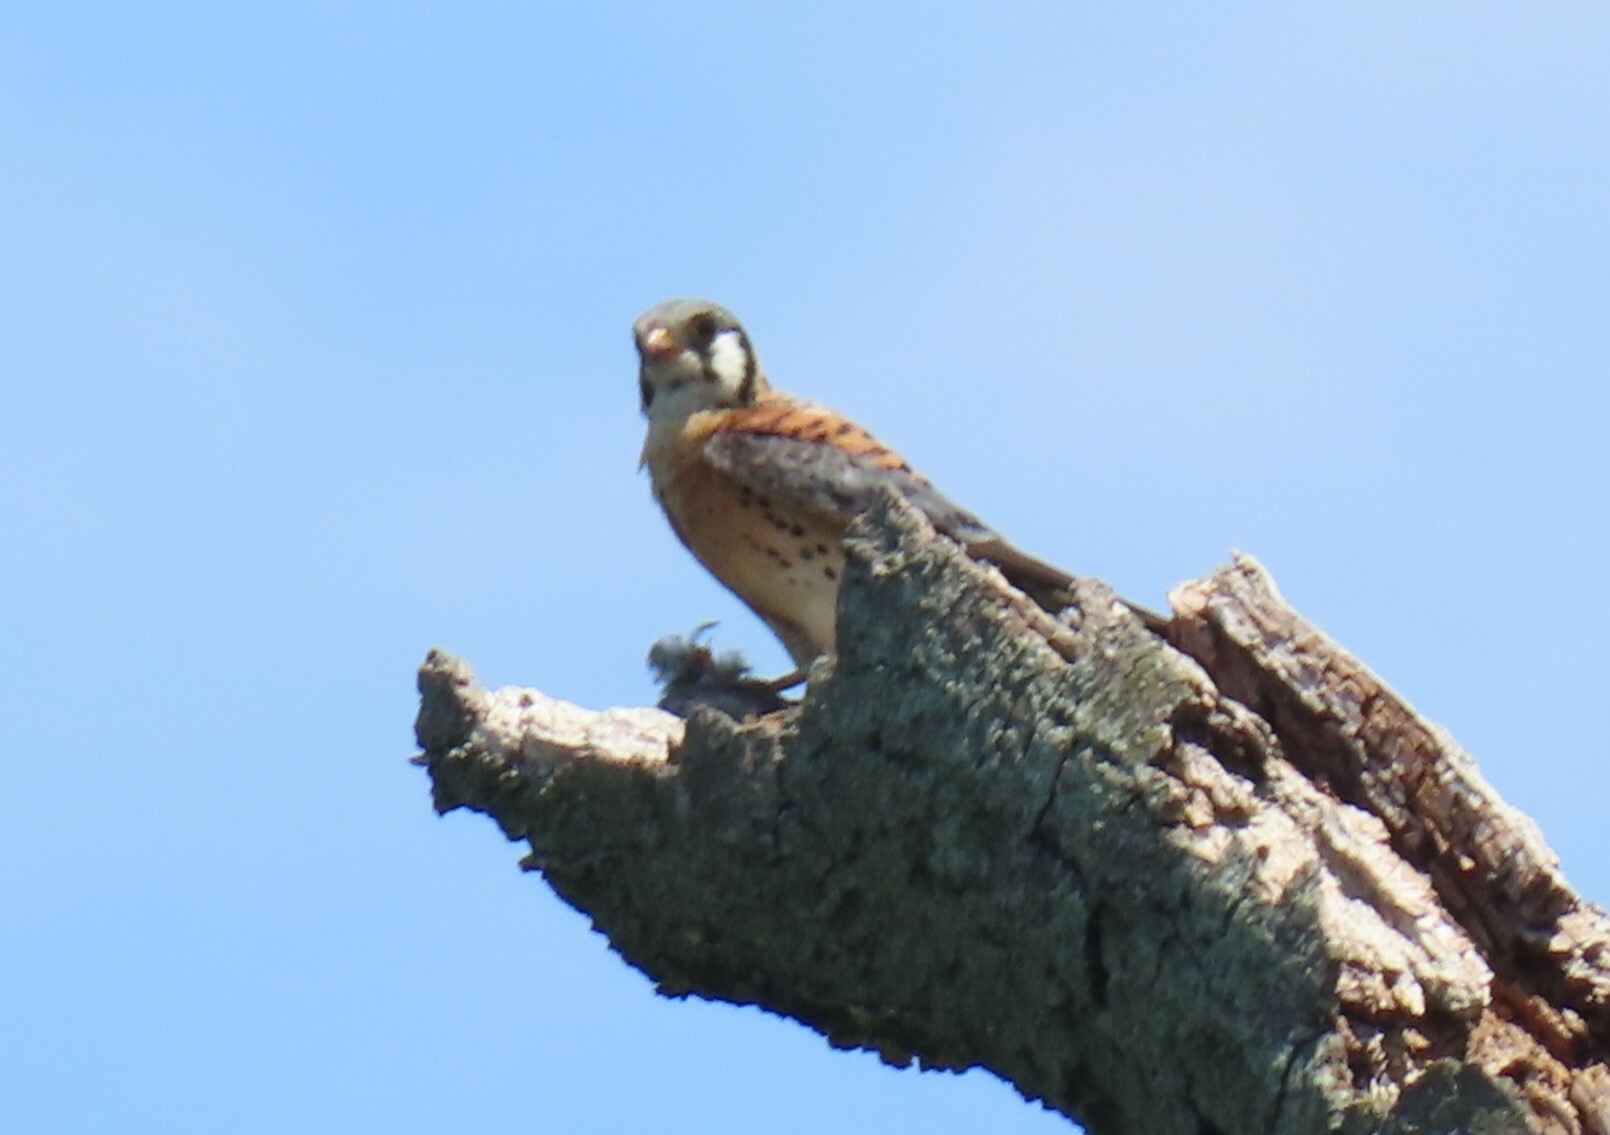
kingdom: Animalia
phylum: Chordata
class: Aves
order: Falconiformes
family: Falconidae
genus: Falco
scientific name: Falco sparverius
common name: American kestrel
